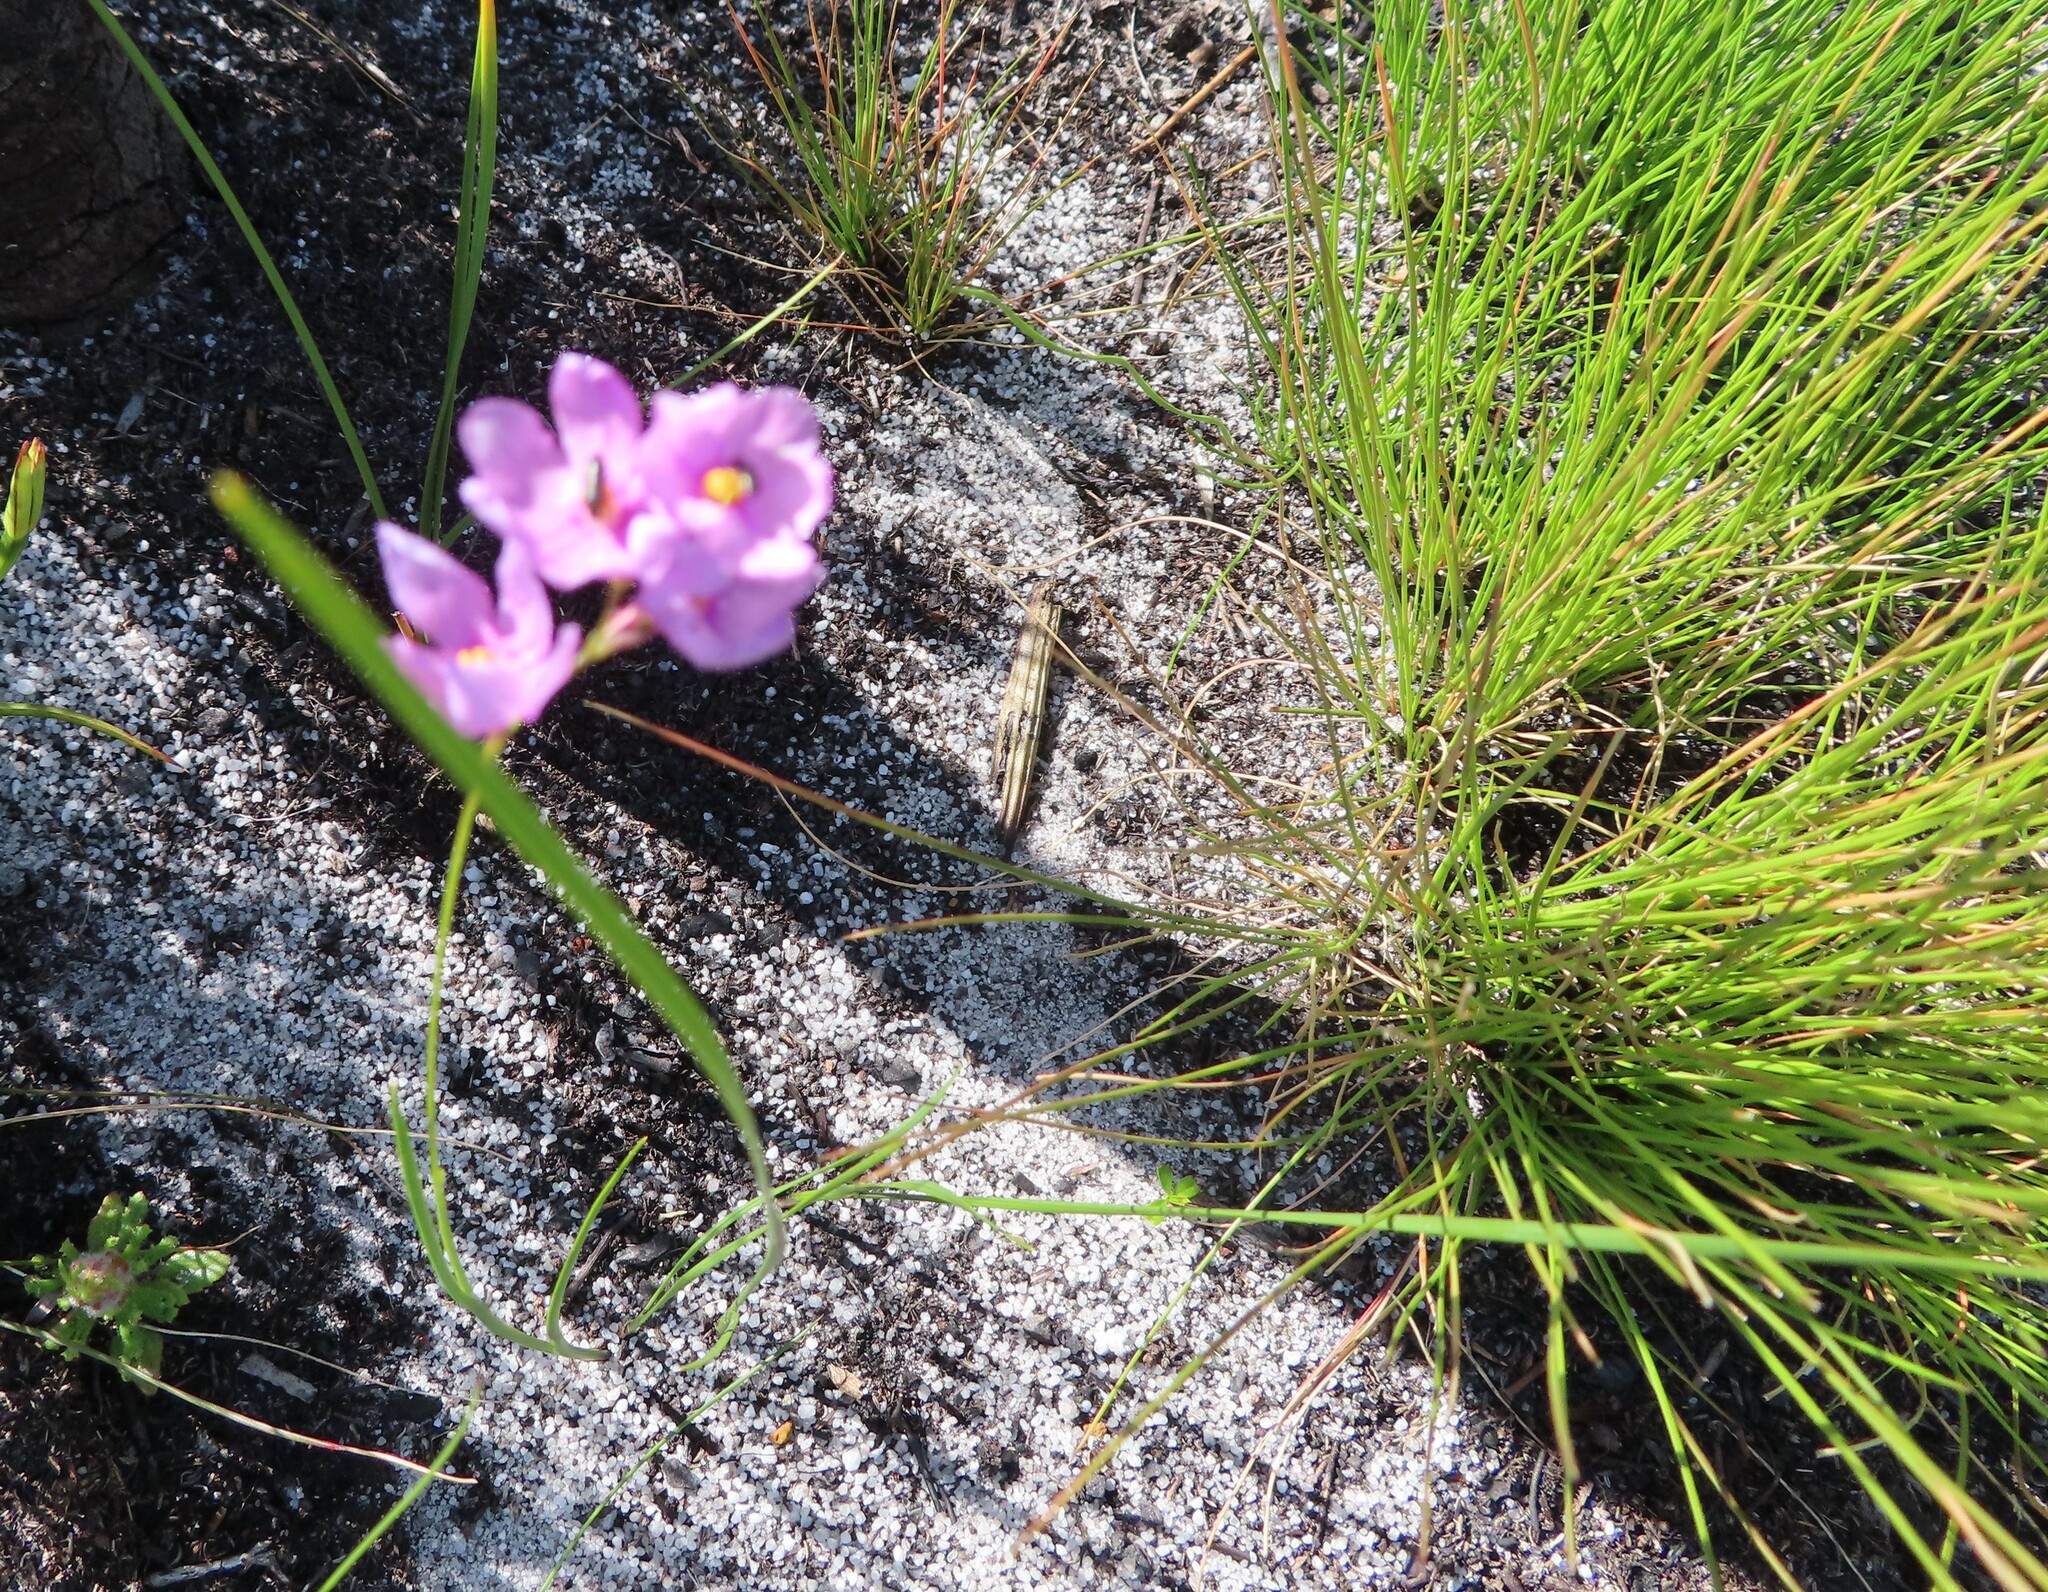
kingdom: Plantae
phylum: Tracheophyta
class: Liliopsida
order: Asparagales
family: Iridaceae
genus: Ixia
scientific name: Ixia micrandra
